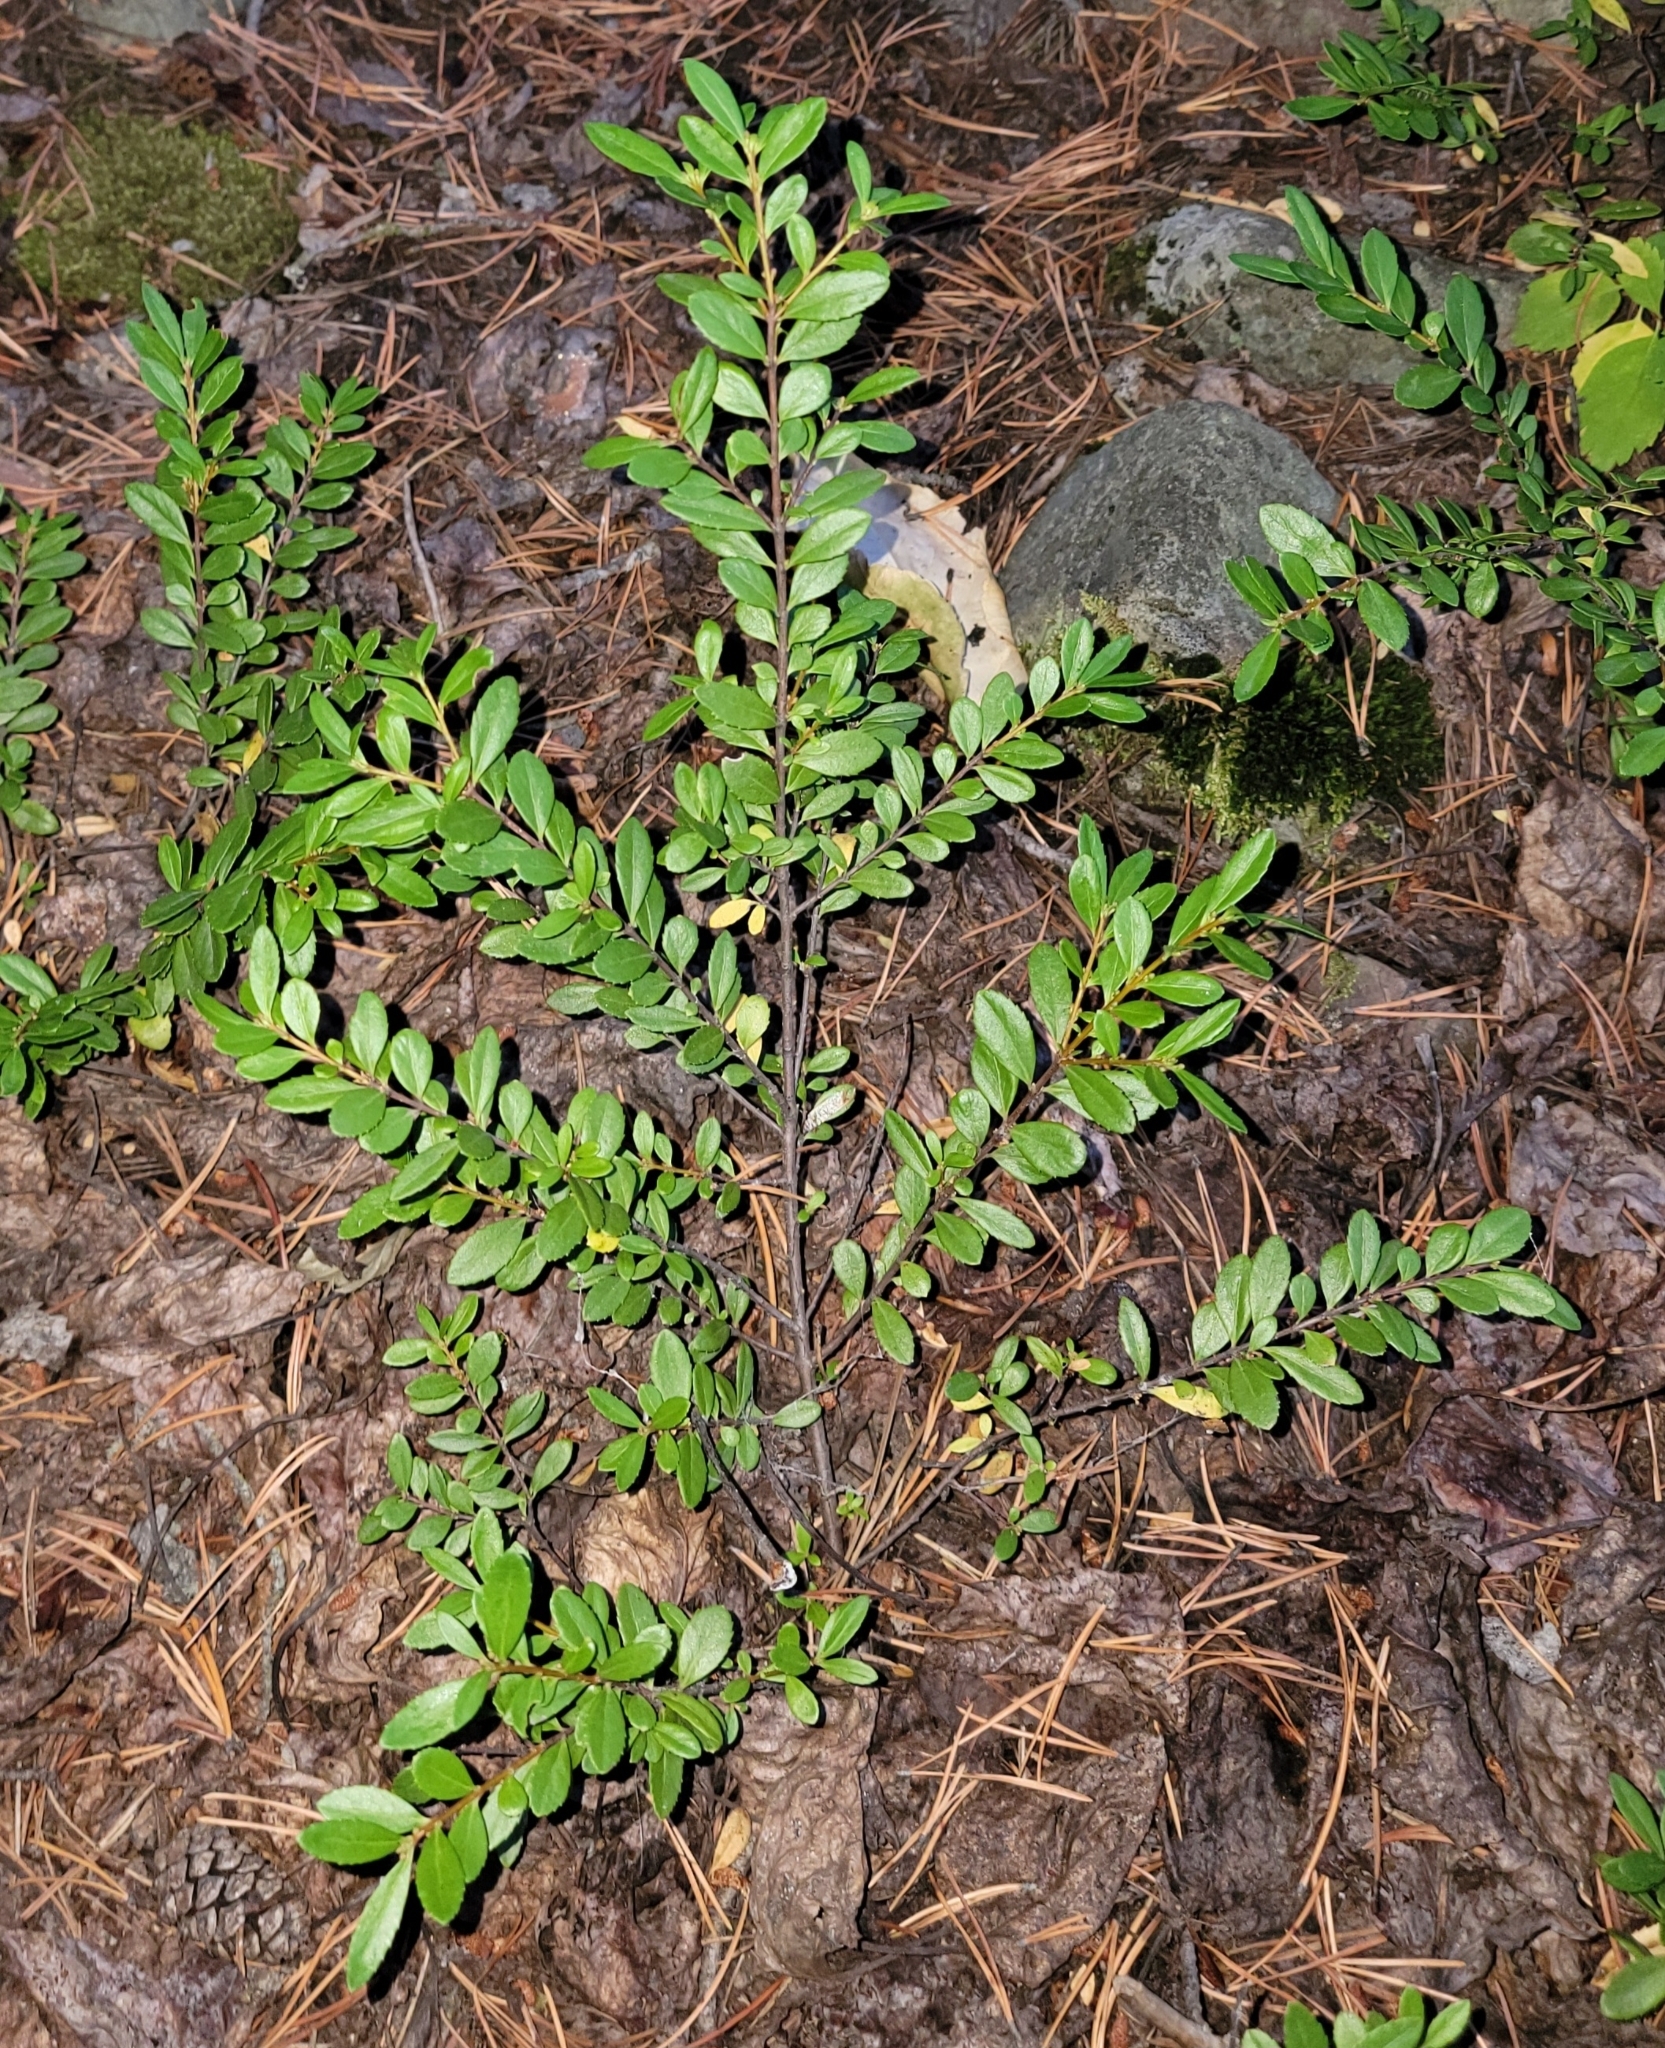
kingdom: Plantae
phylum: Tracheophyta
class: Magnoliopsida
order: Celastrales
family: Celastraceae
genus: Paxistima
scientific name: Paxistima myrsinites
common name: Mountain-lover
